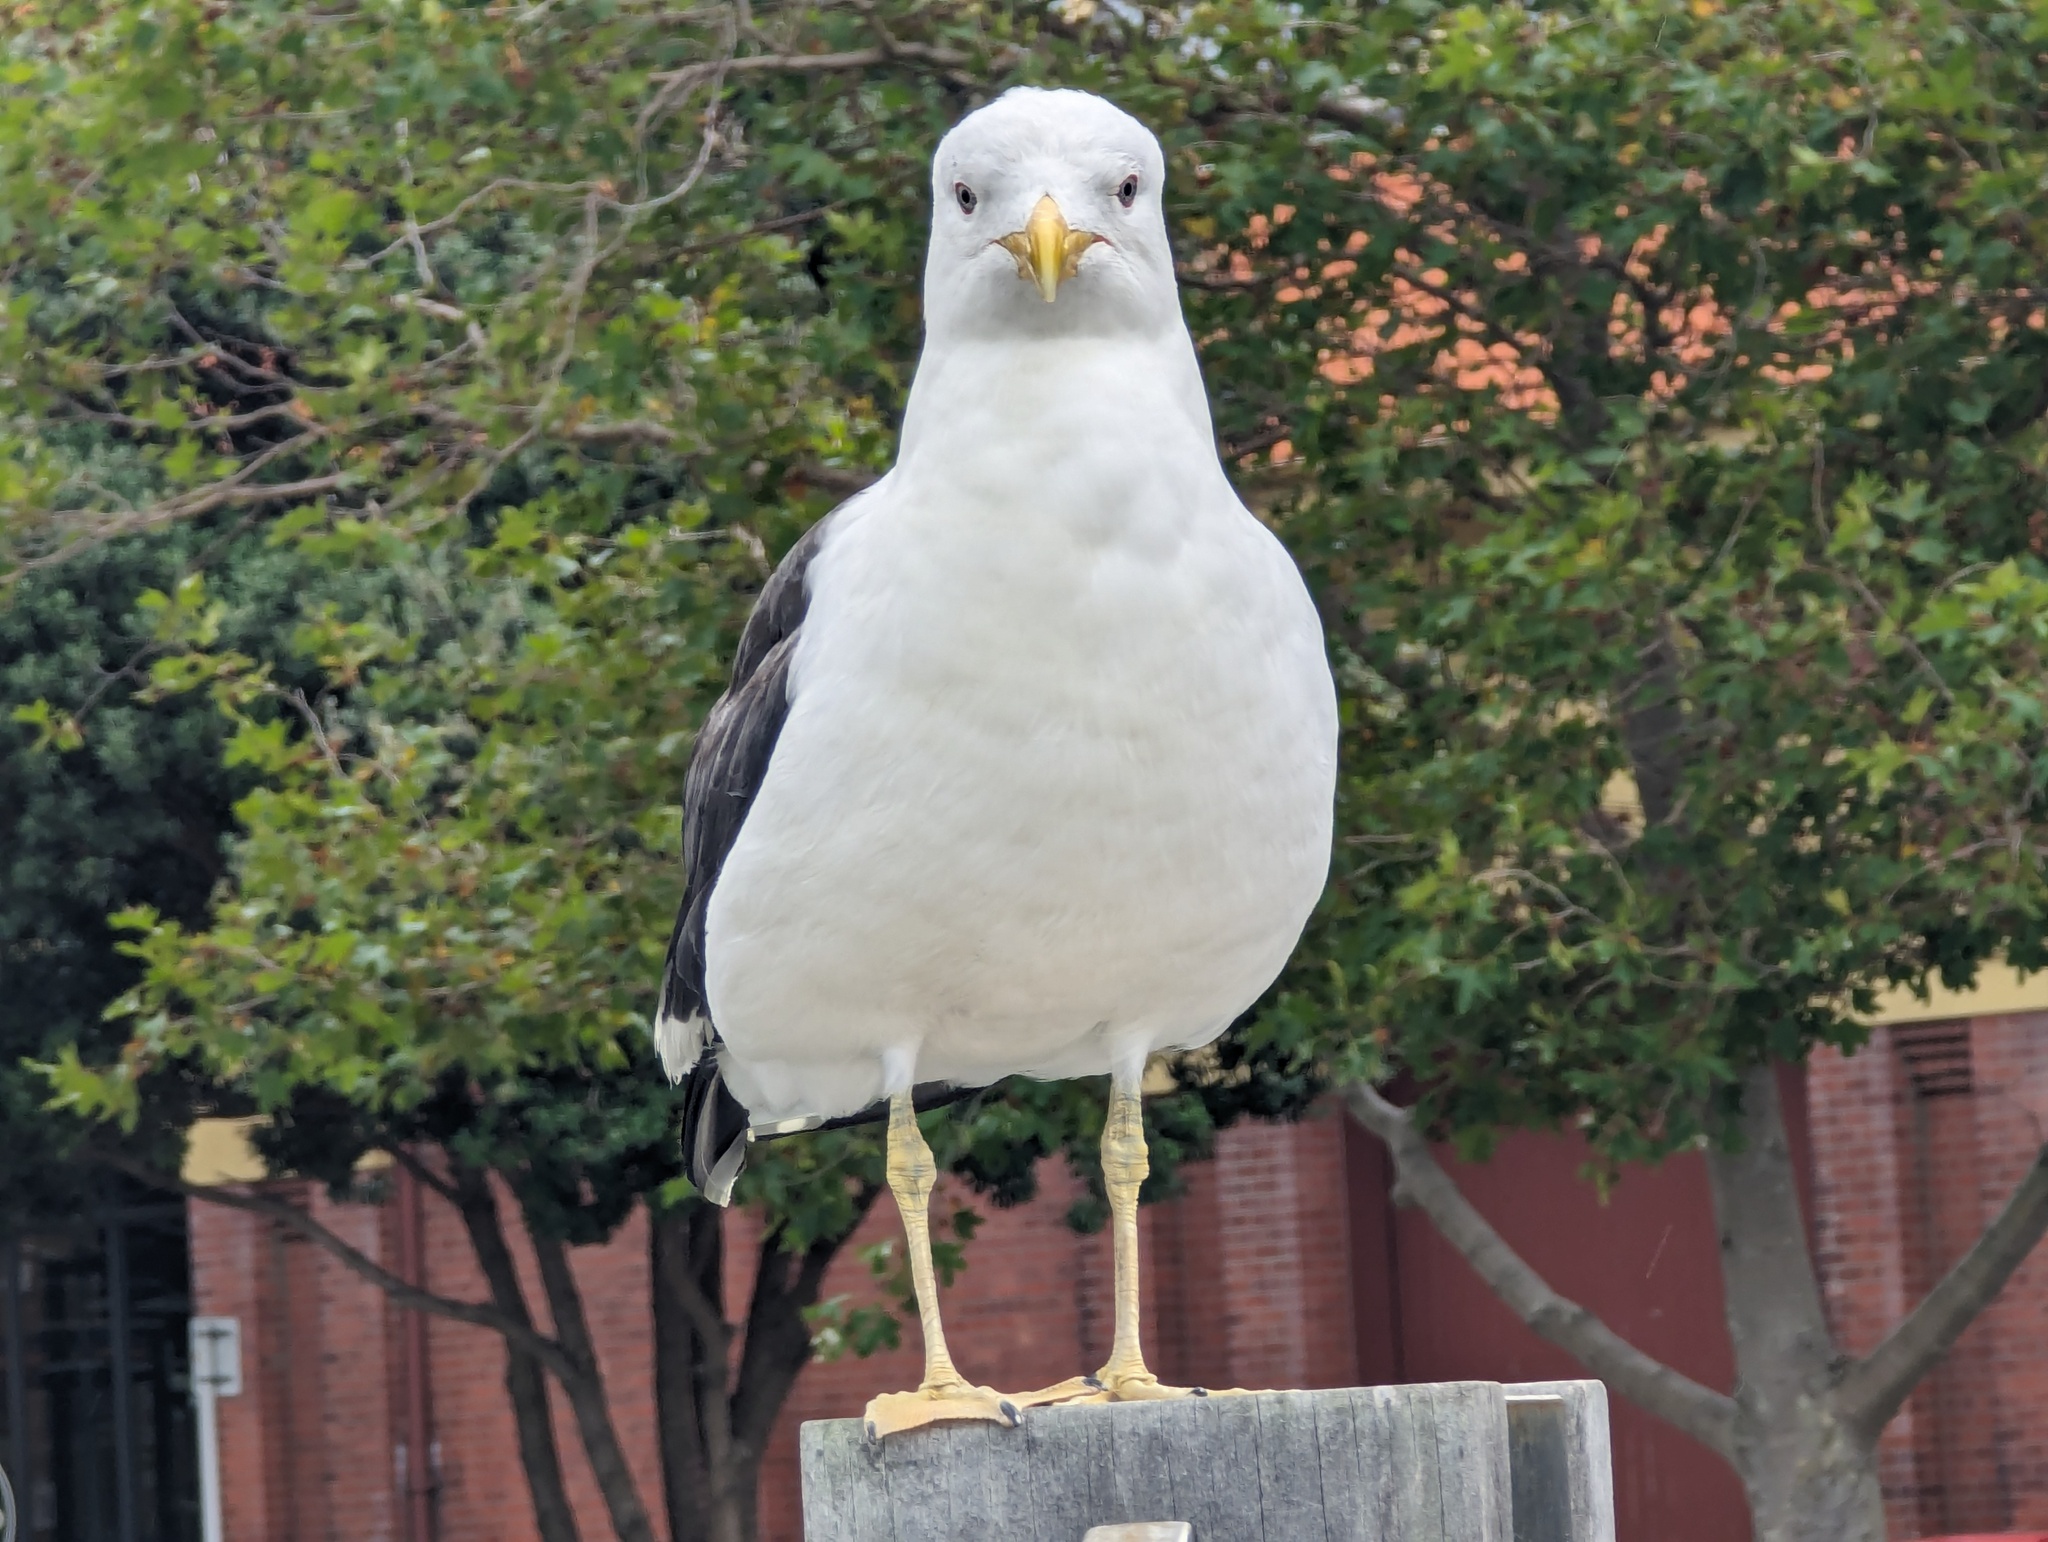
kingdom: Animalia
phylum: Chordata
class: Aves
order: Charadriiformes
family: Laridae
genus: Larus
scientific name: Larus dominicanus
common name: Kelp gull
